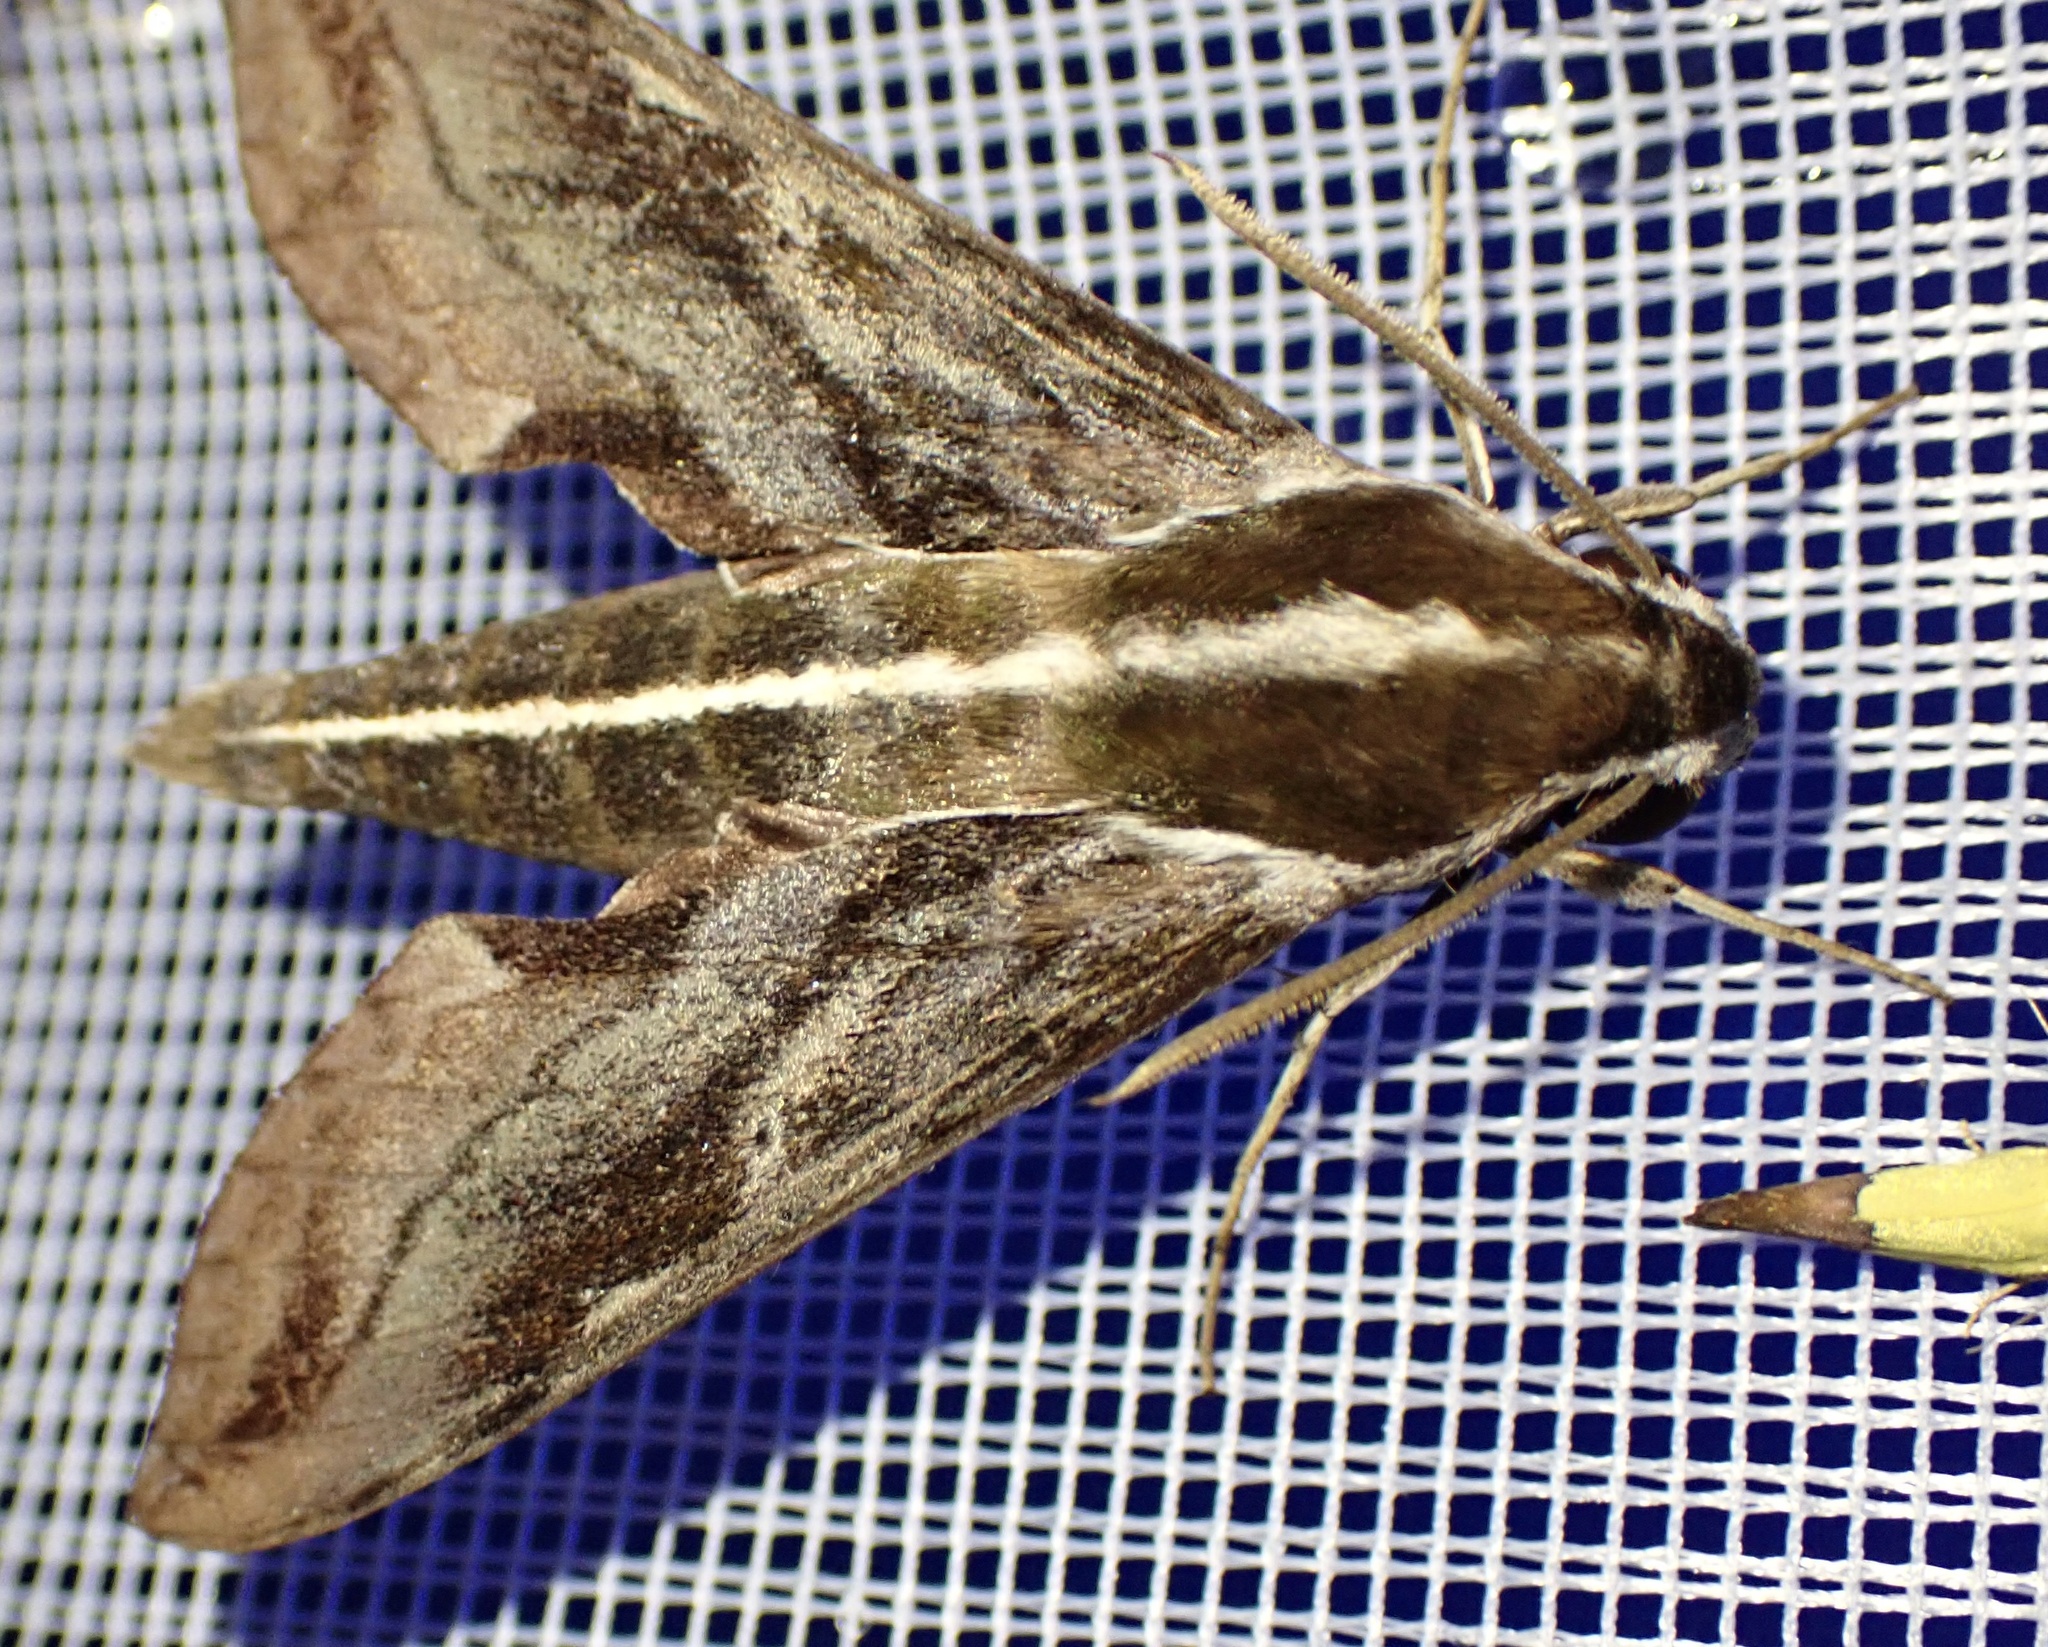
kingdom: Animalia
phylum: Arthropoda
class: Insecta
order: Lepidoptera
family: Sphingidae
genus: Hippotion
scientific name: Hippotion brunnea
